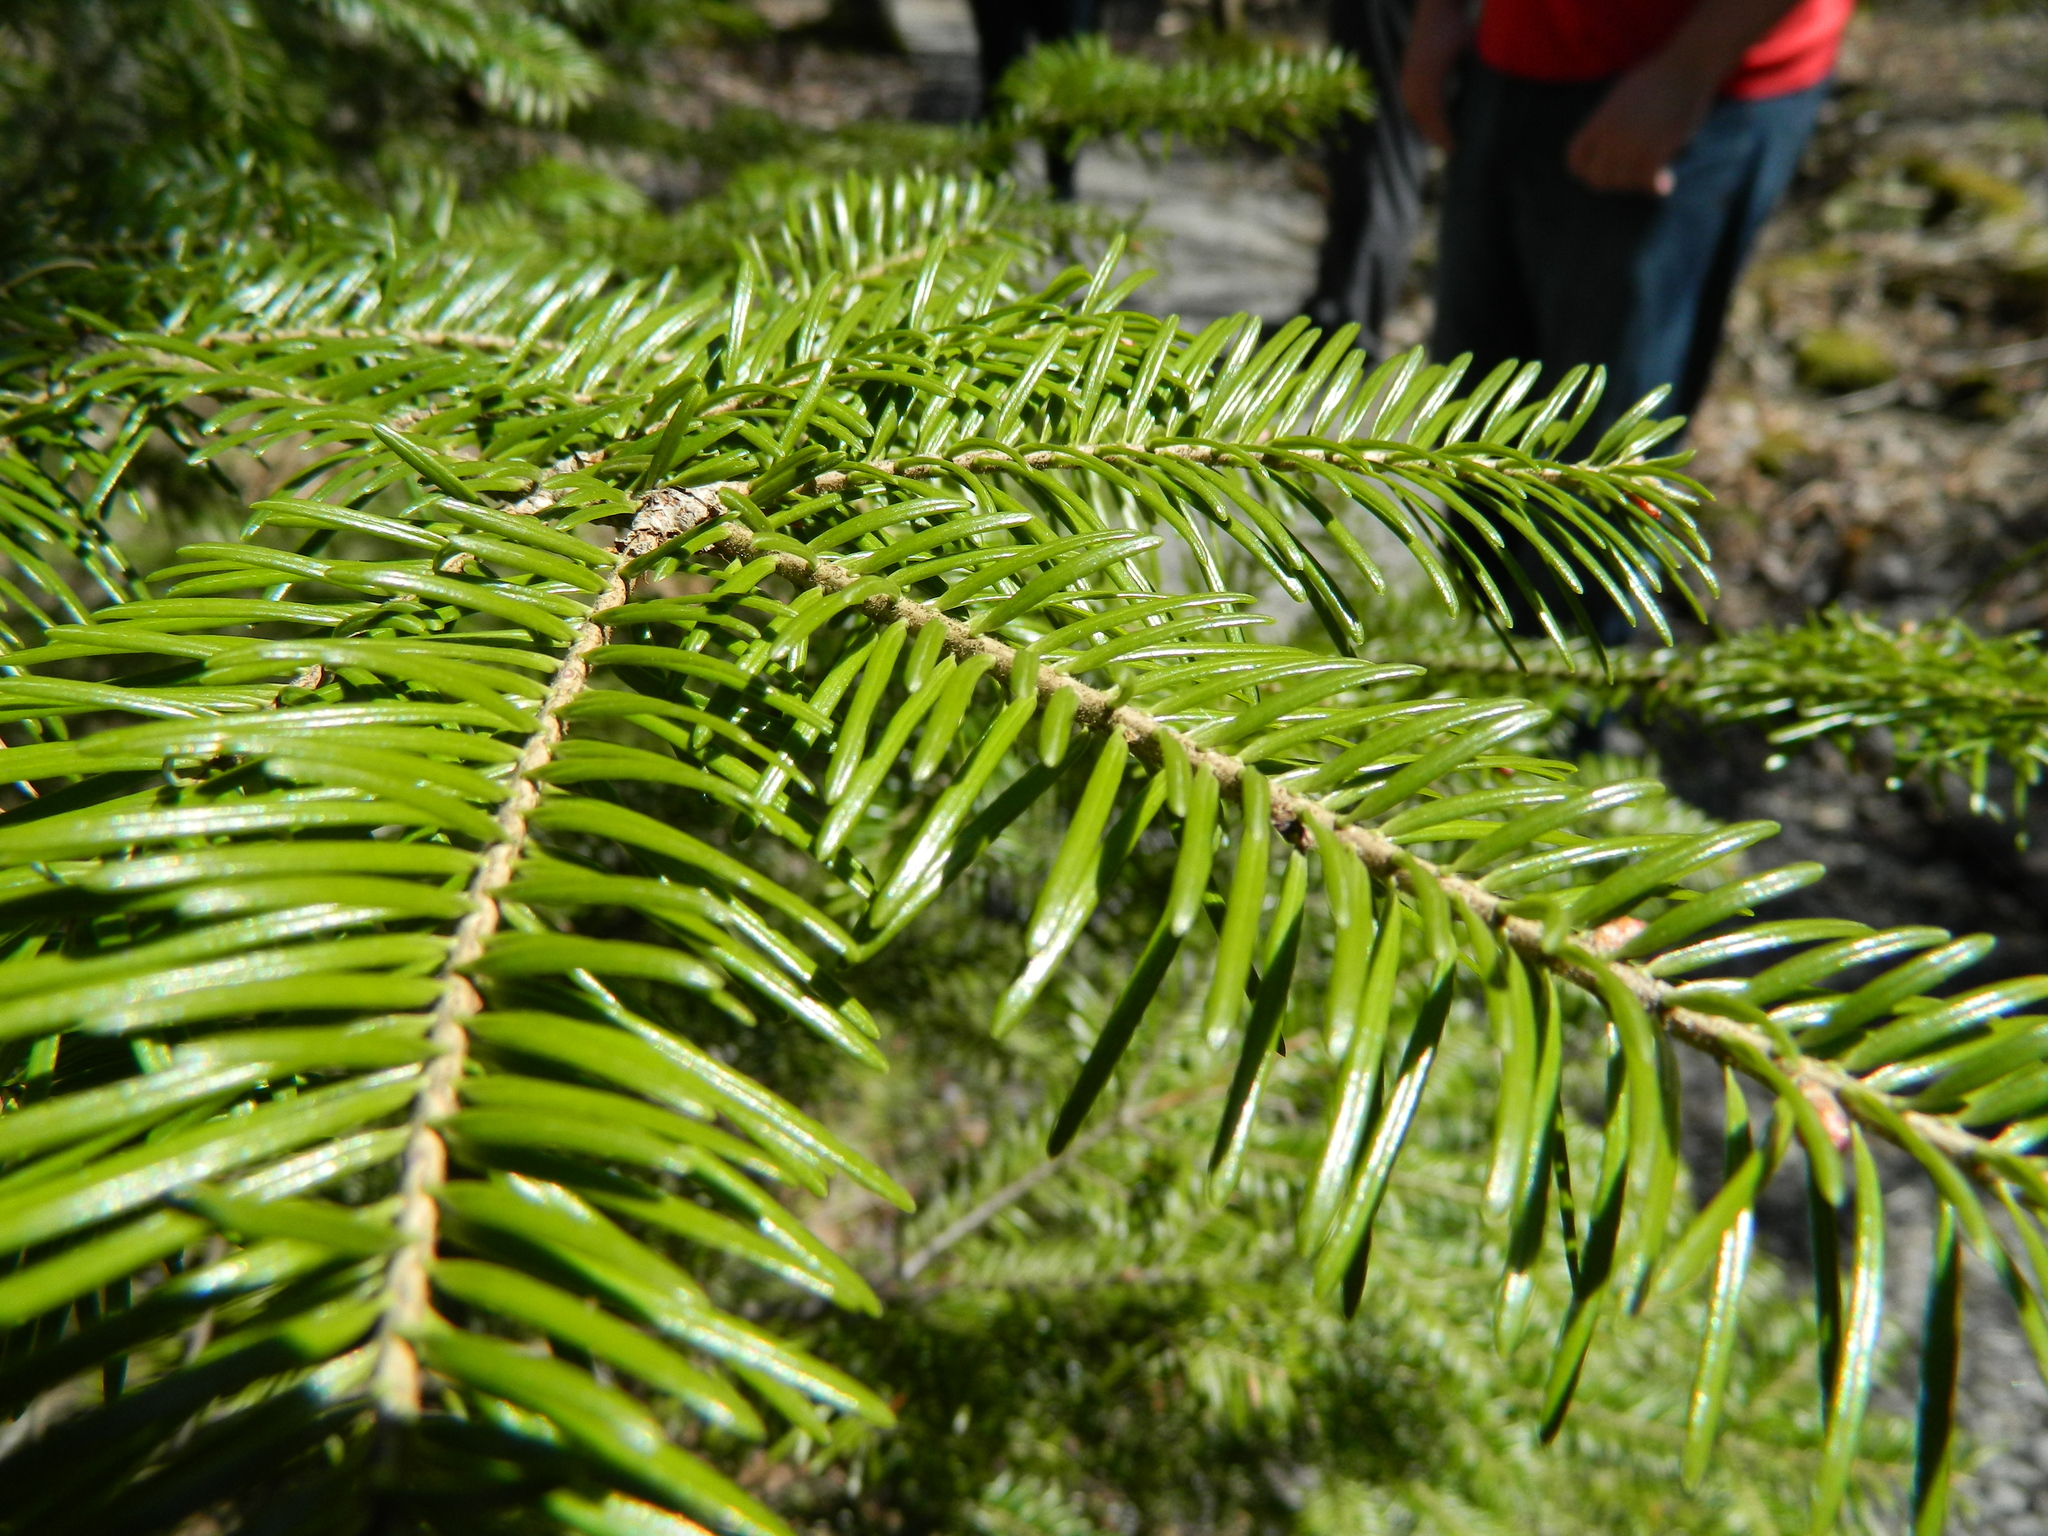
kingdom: Plantae
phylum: Tracheophyta
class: Pinopsida
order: Pinales
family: Pinaceae
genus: Abies
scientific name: Abies balsamea
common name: Balsam fir
